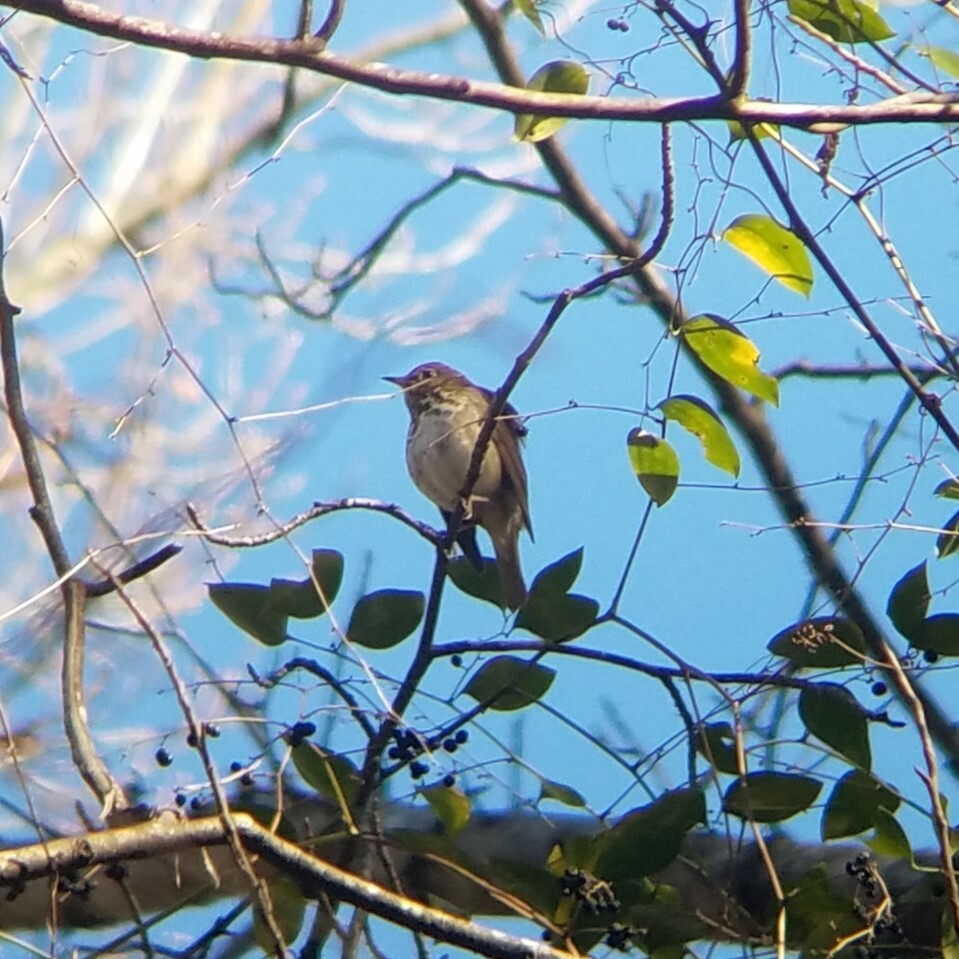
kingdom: Animalia
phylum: Chordata
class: Aves
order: Passeriformes
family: Turdidae
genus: Catharus
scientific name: Catharus guttatus
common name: Hermit thrush
